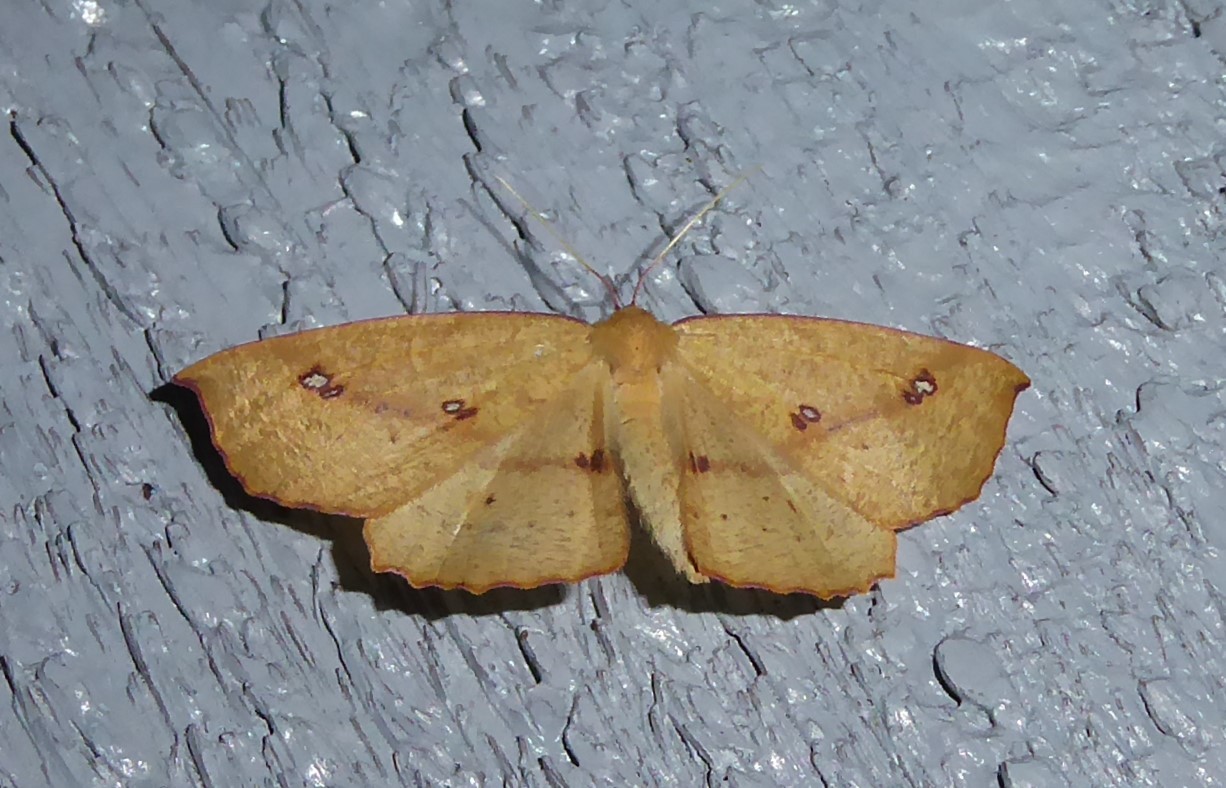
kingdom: Animalia
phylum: Arthropoda
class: Insecta
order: Lepidoptera
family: Geometridae
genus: Xyridacma
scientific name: Xyridacma alectoraria
